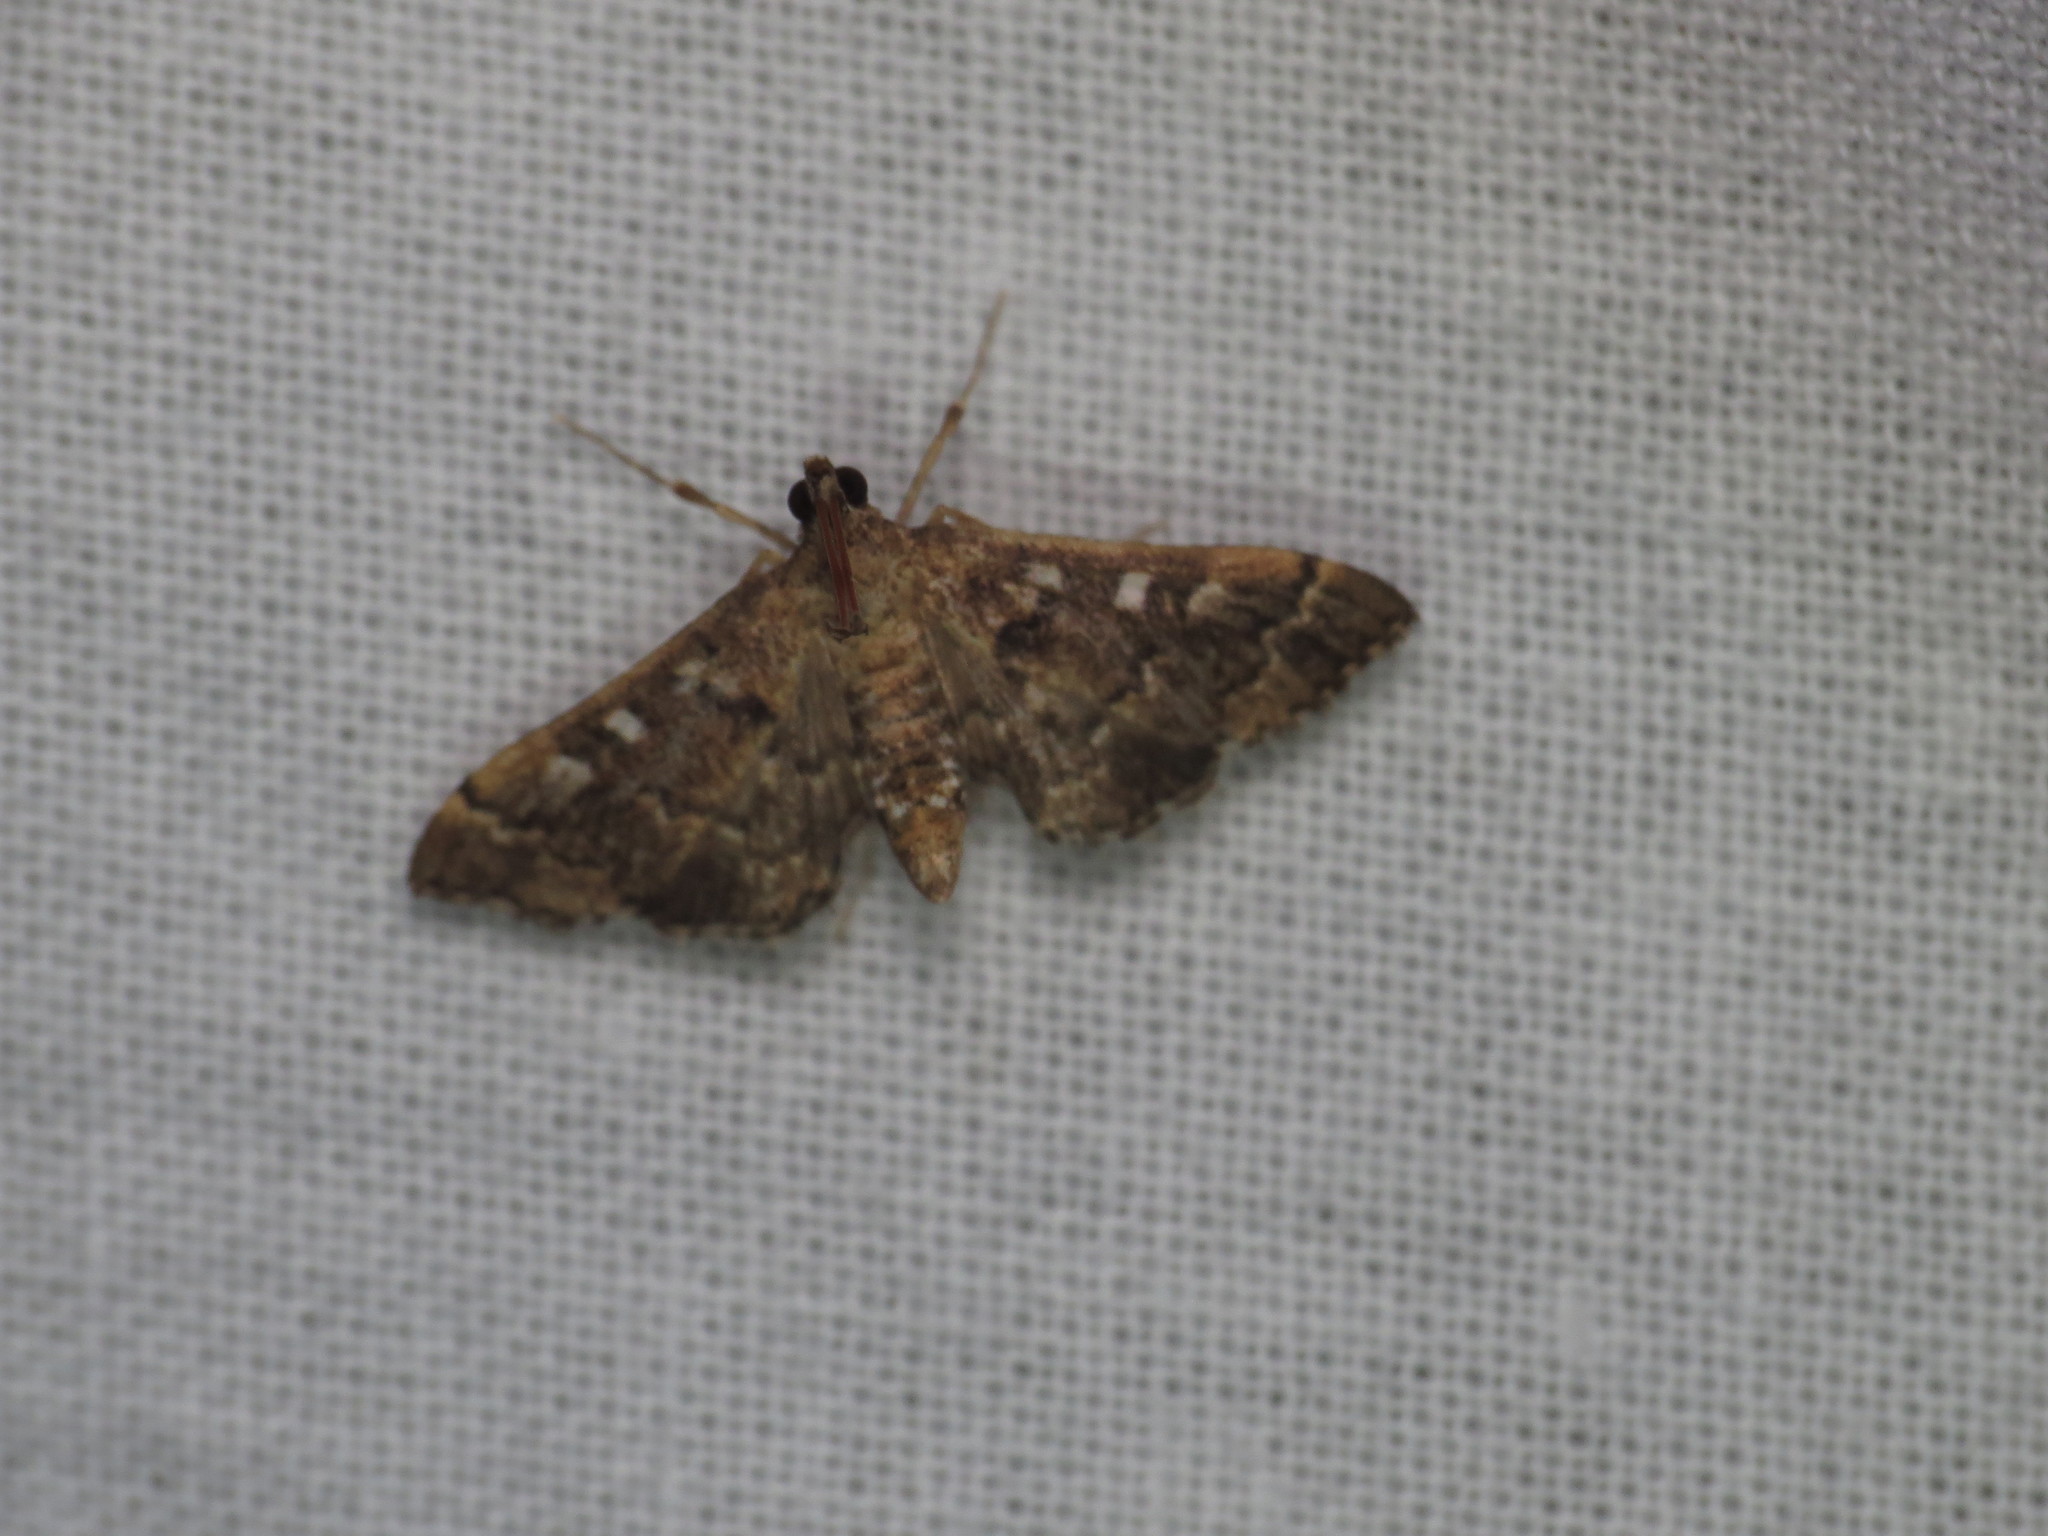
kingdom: Animalia
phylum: Arthropoda
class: Insecta
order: Lepidoptera
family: Crambidae
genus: Nacoleia
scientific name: Nacoleia rhoeoalis
